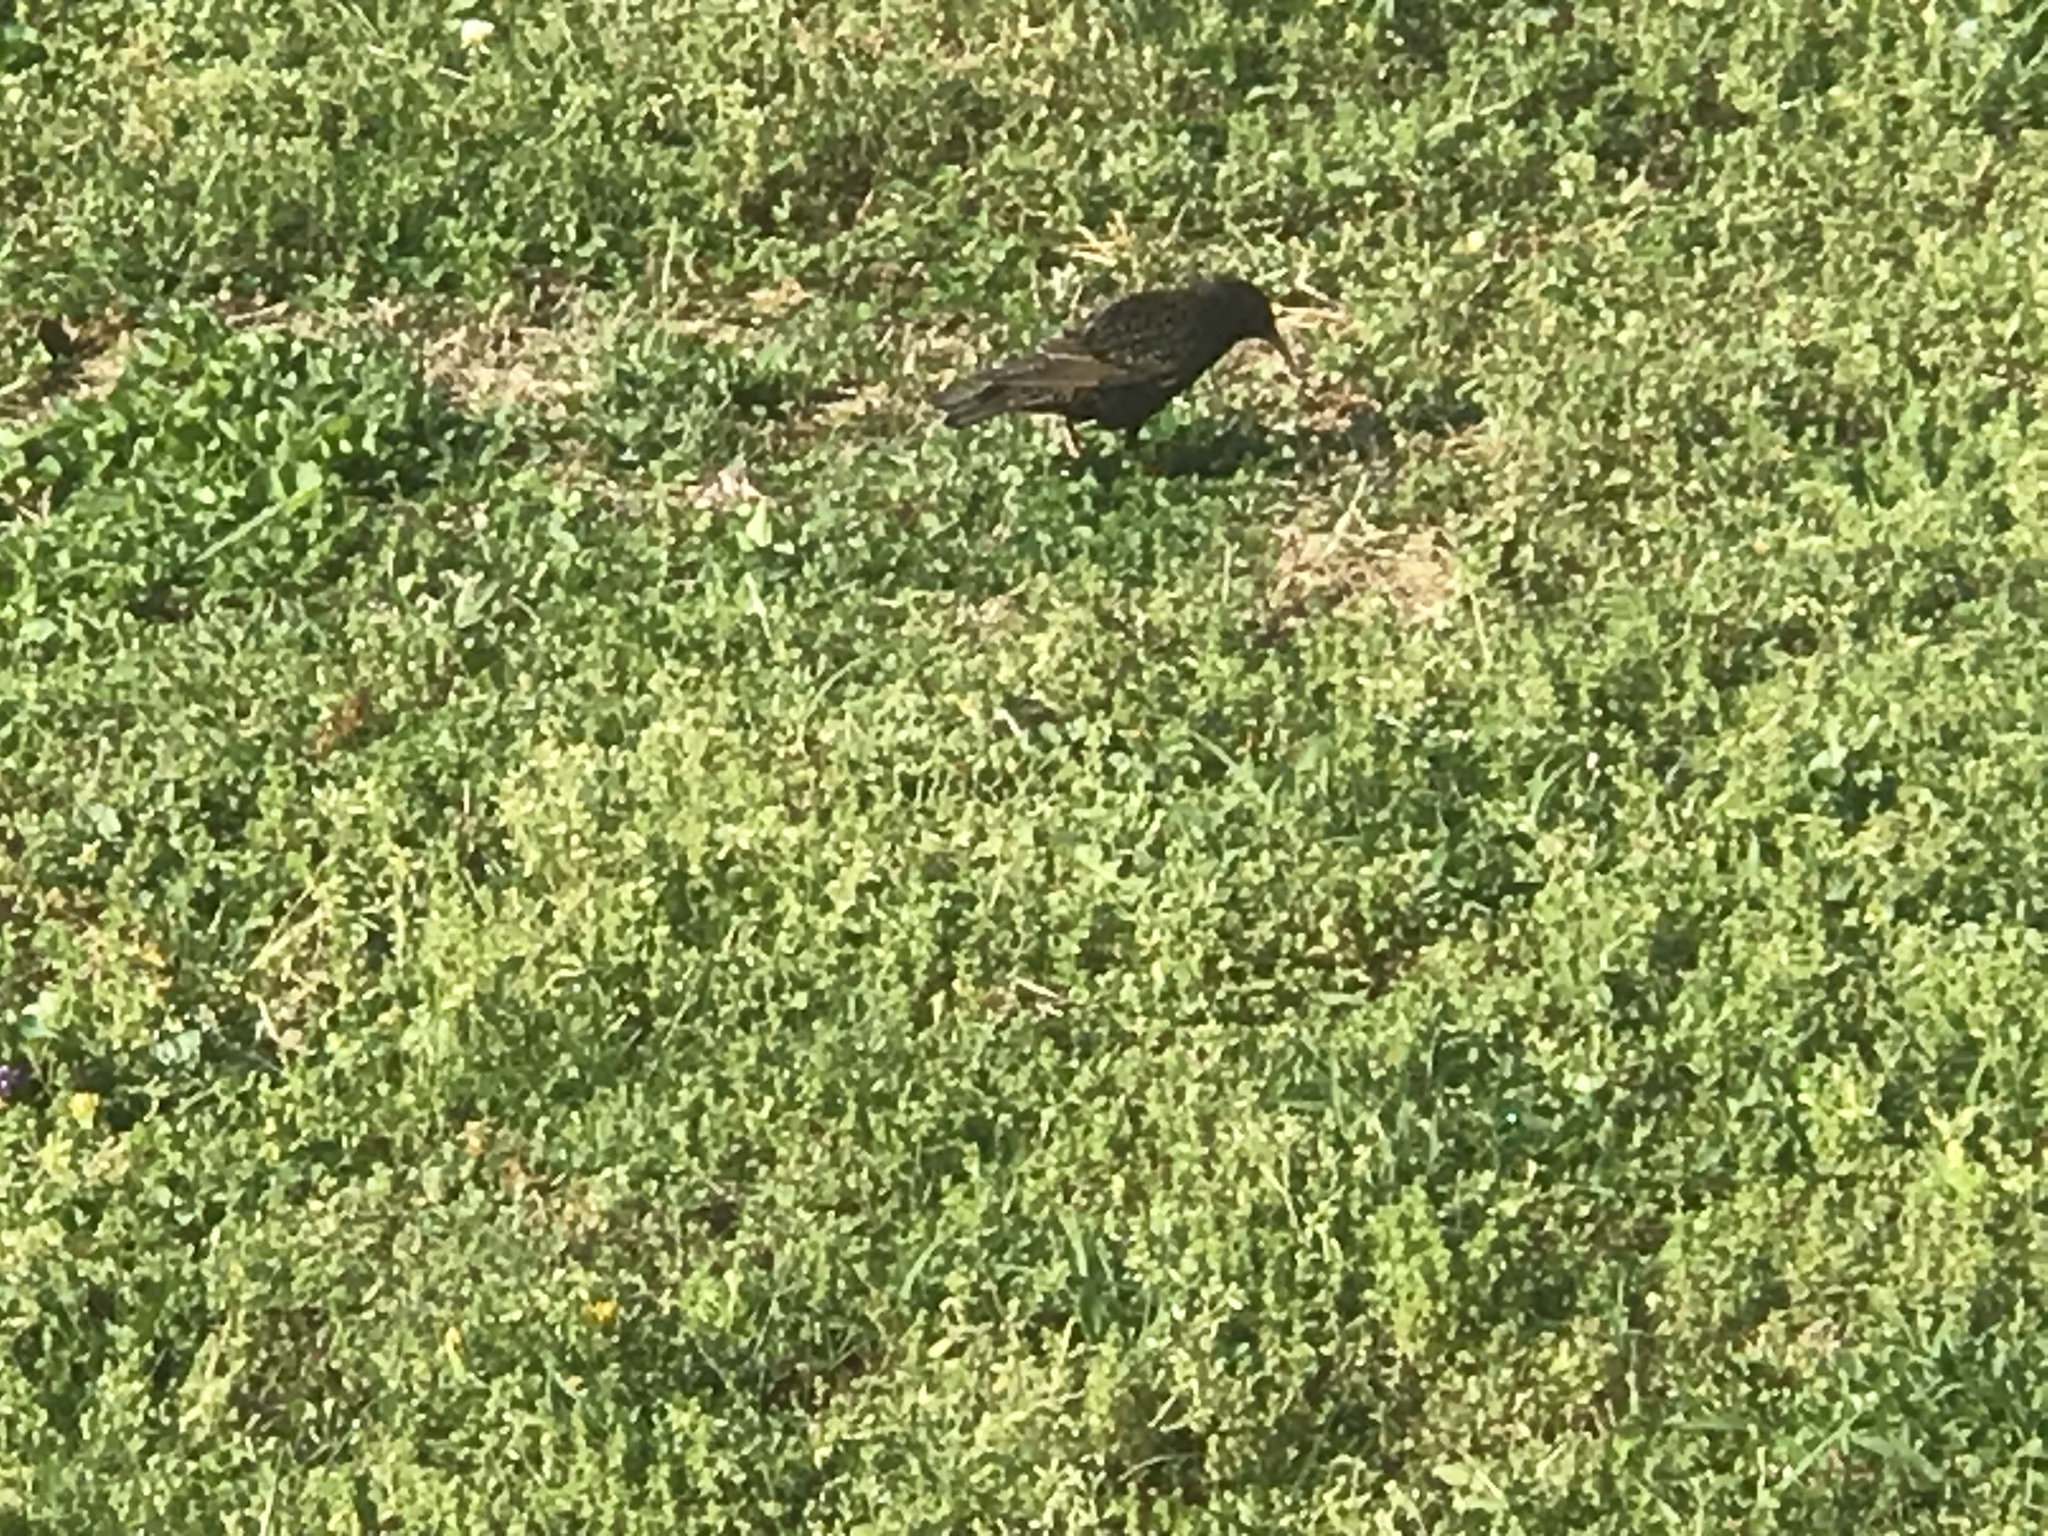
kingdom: Animalia
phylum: Chordata
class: Aves
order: Passeriformes
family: Sturnidae
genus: Sturnus
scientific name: Sturnus vulgaris
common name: Common starling
